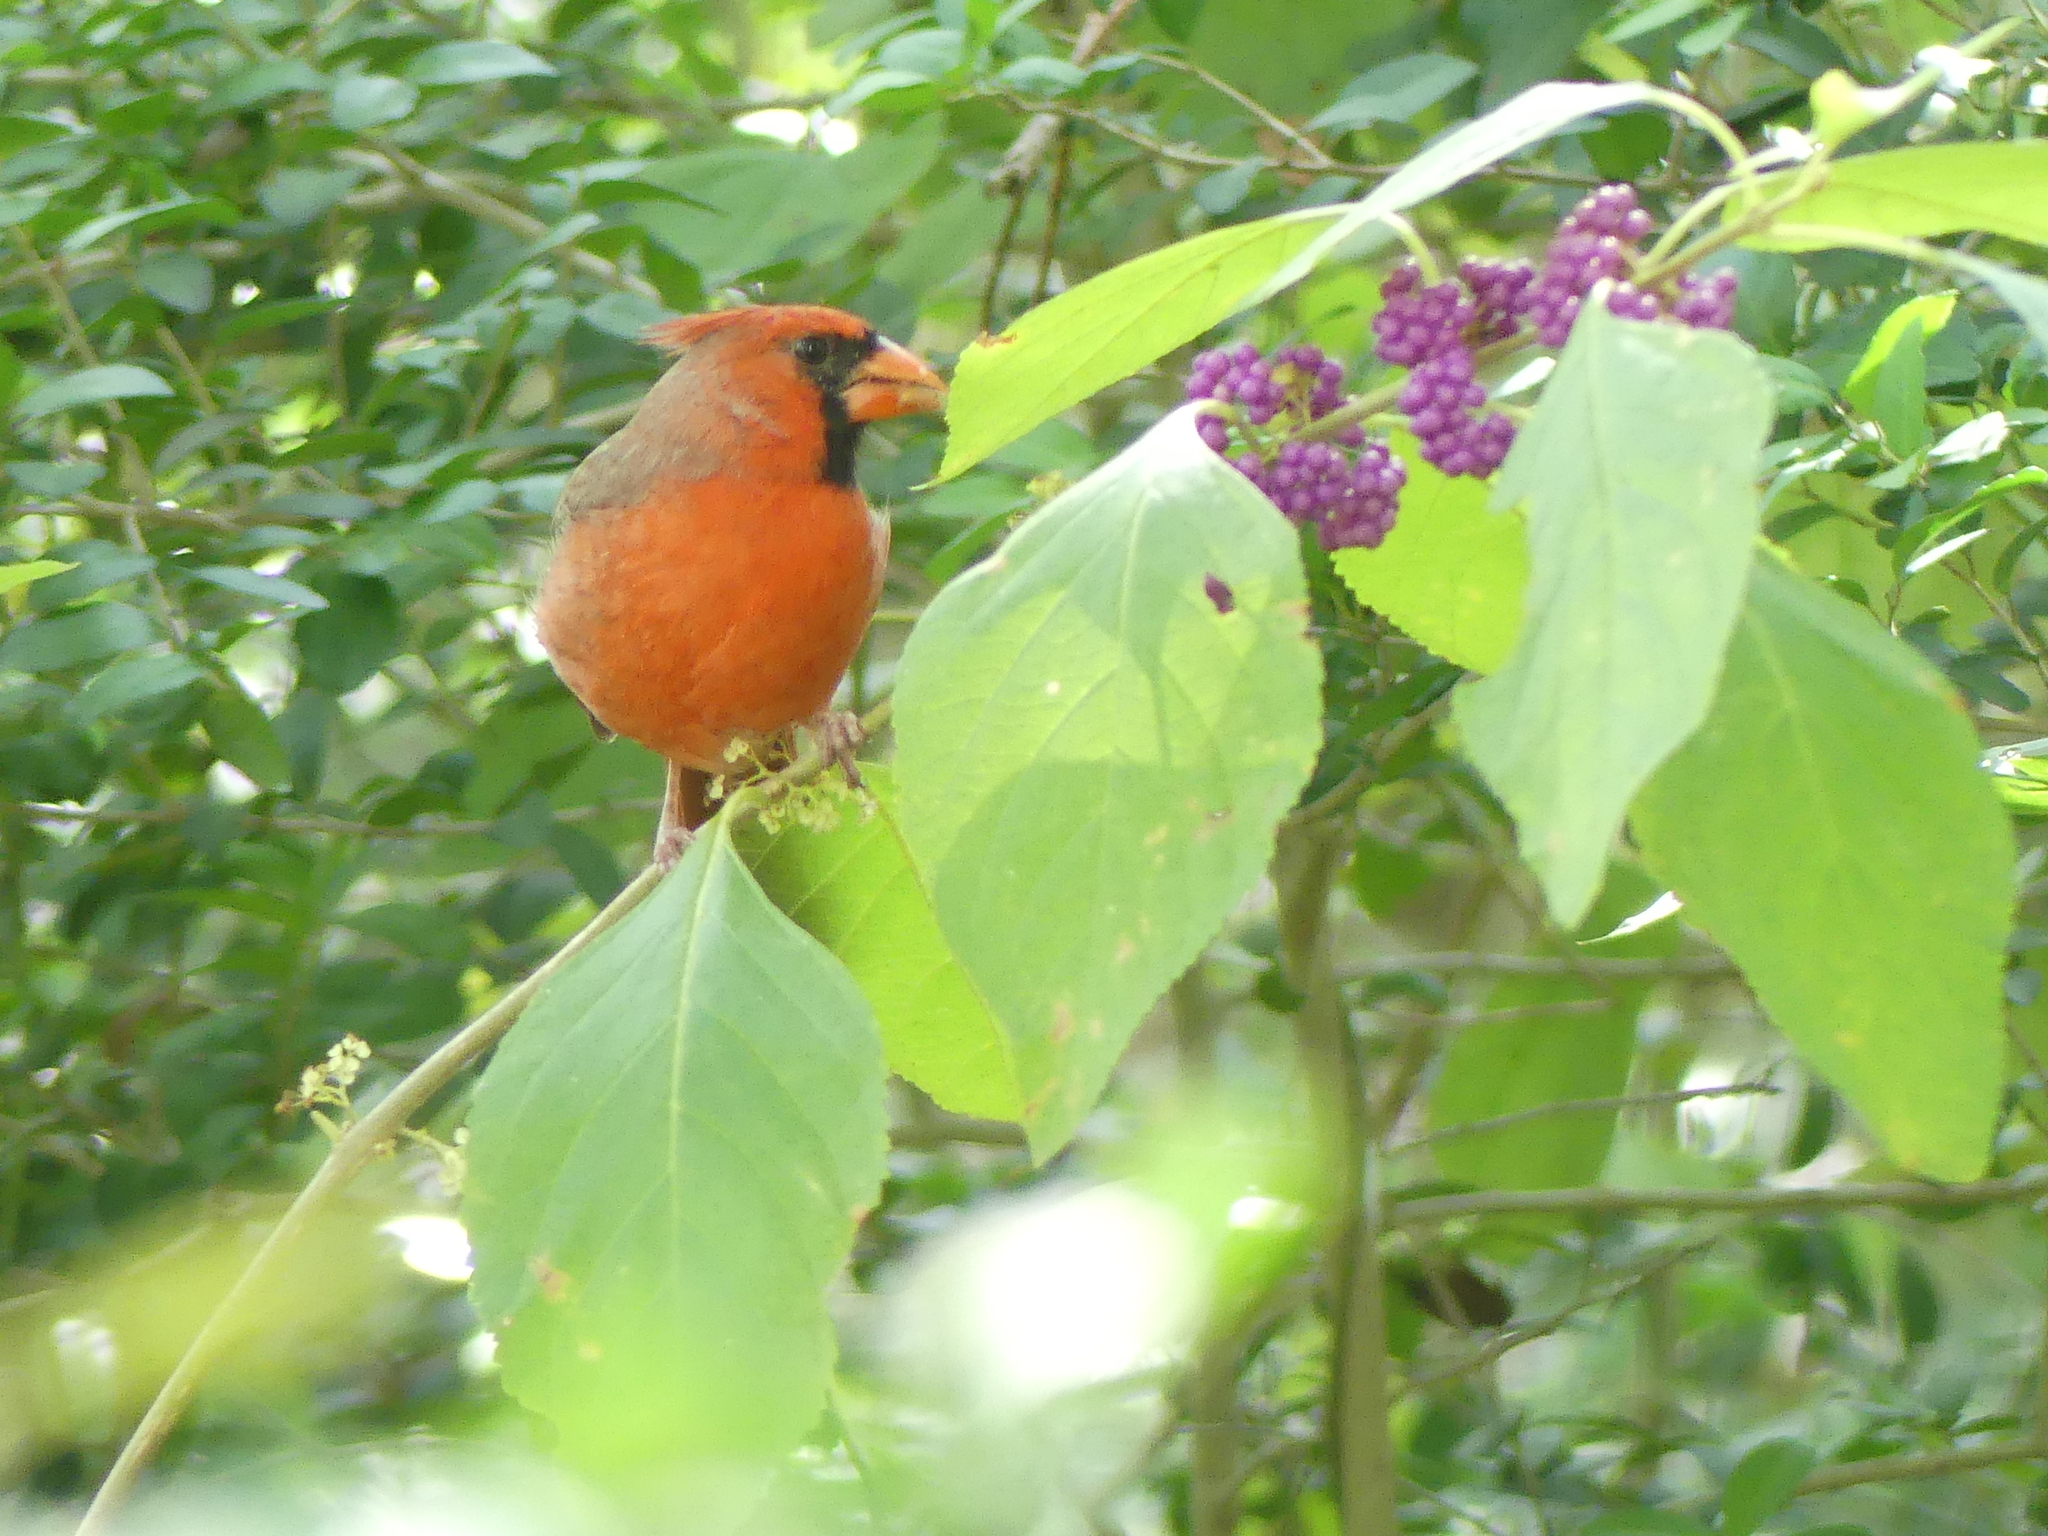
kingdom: Plantae
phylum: Tracheophyta
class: Magnoliopsida
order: Lamiales
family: Lamiaceae
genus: Callicarpa
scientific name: Callicarpa americana
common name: American beautyberry
